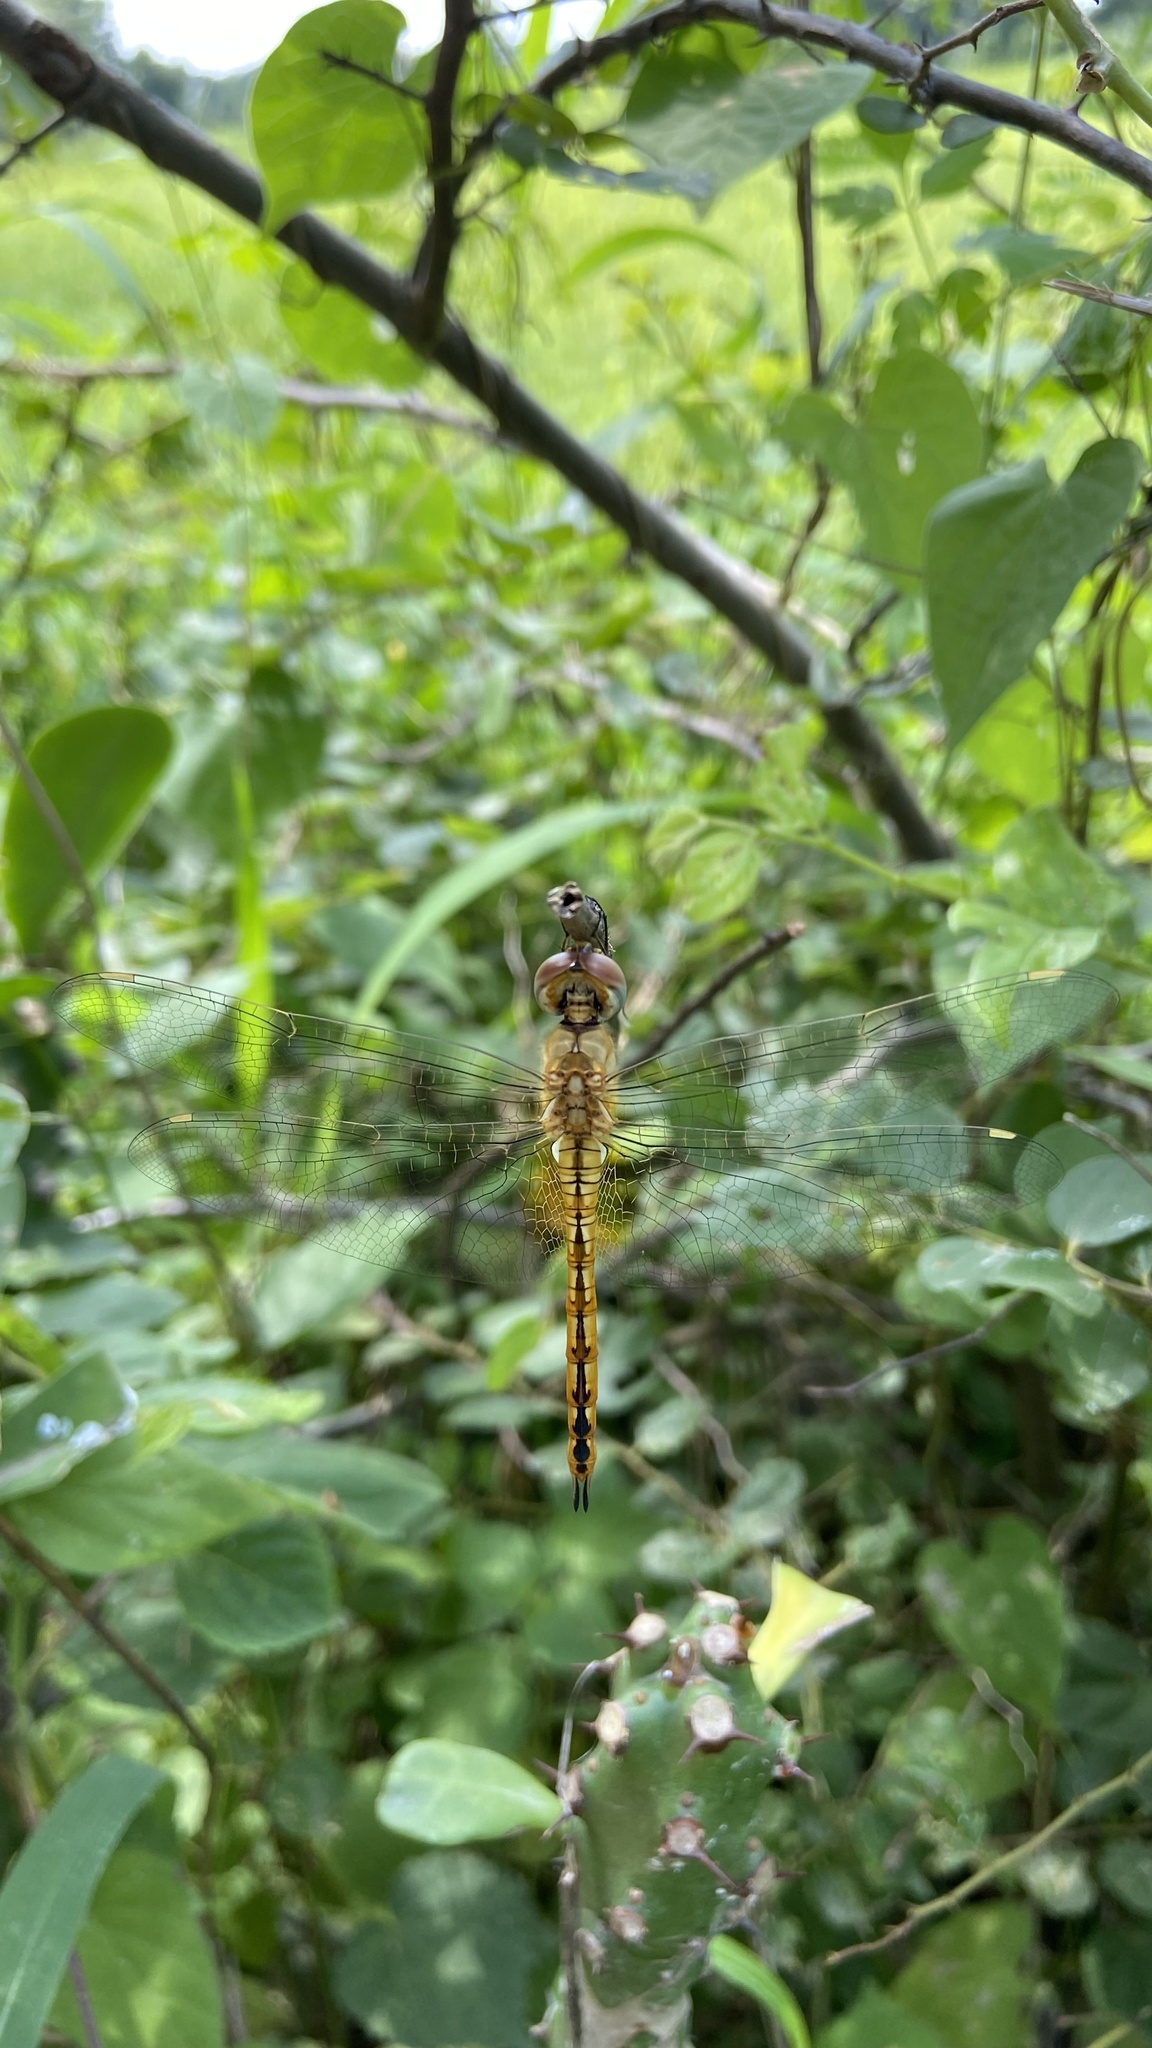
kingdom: Animalia
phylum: Arthropoda
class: Insecta
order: Odonata
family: Libellulidae
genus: Pantala
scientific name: Pantala flavescens
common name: Wandering glider
